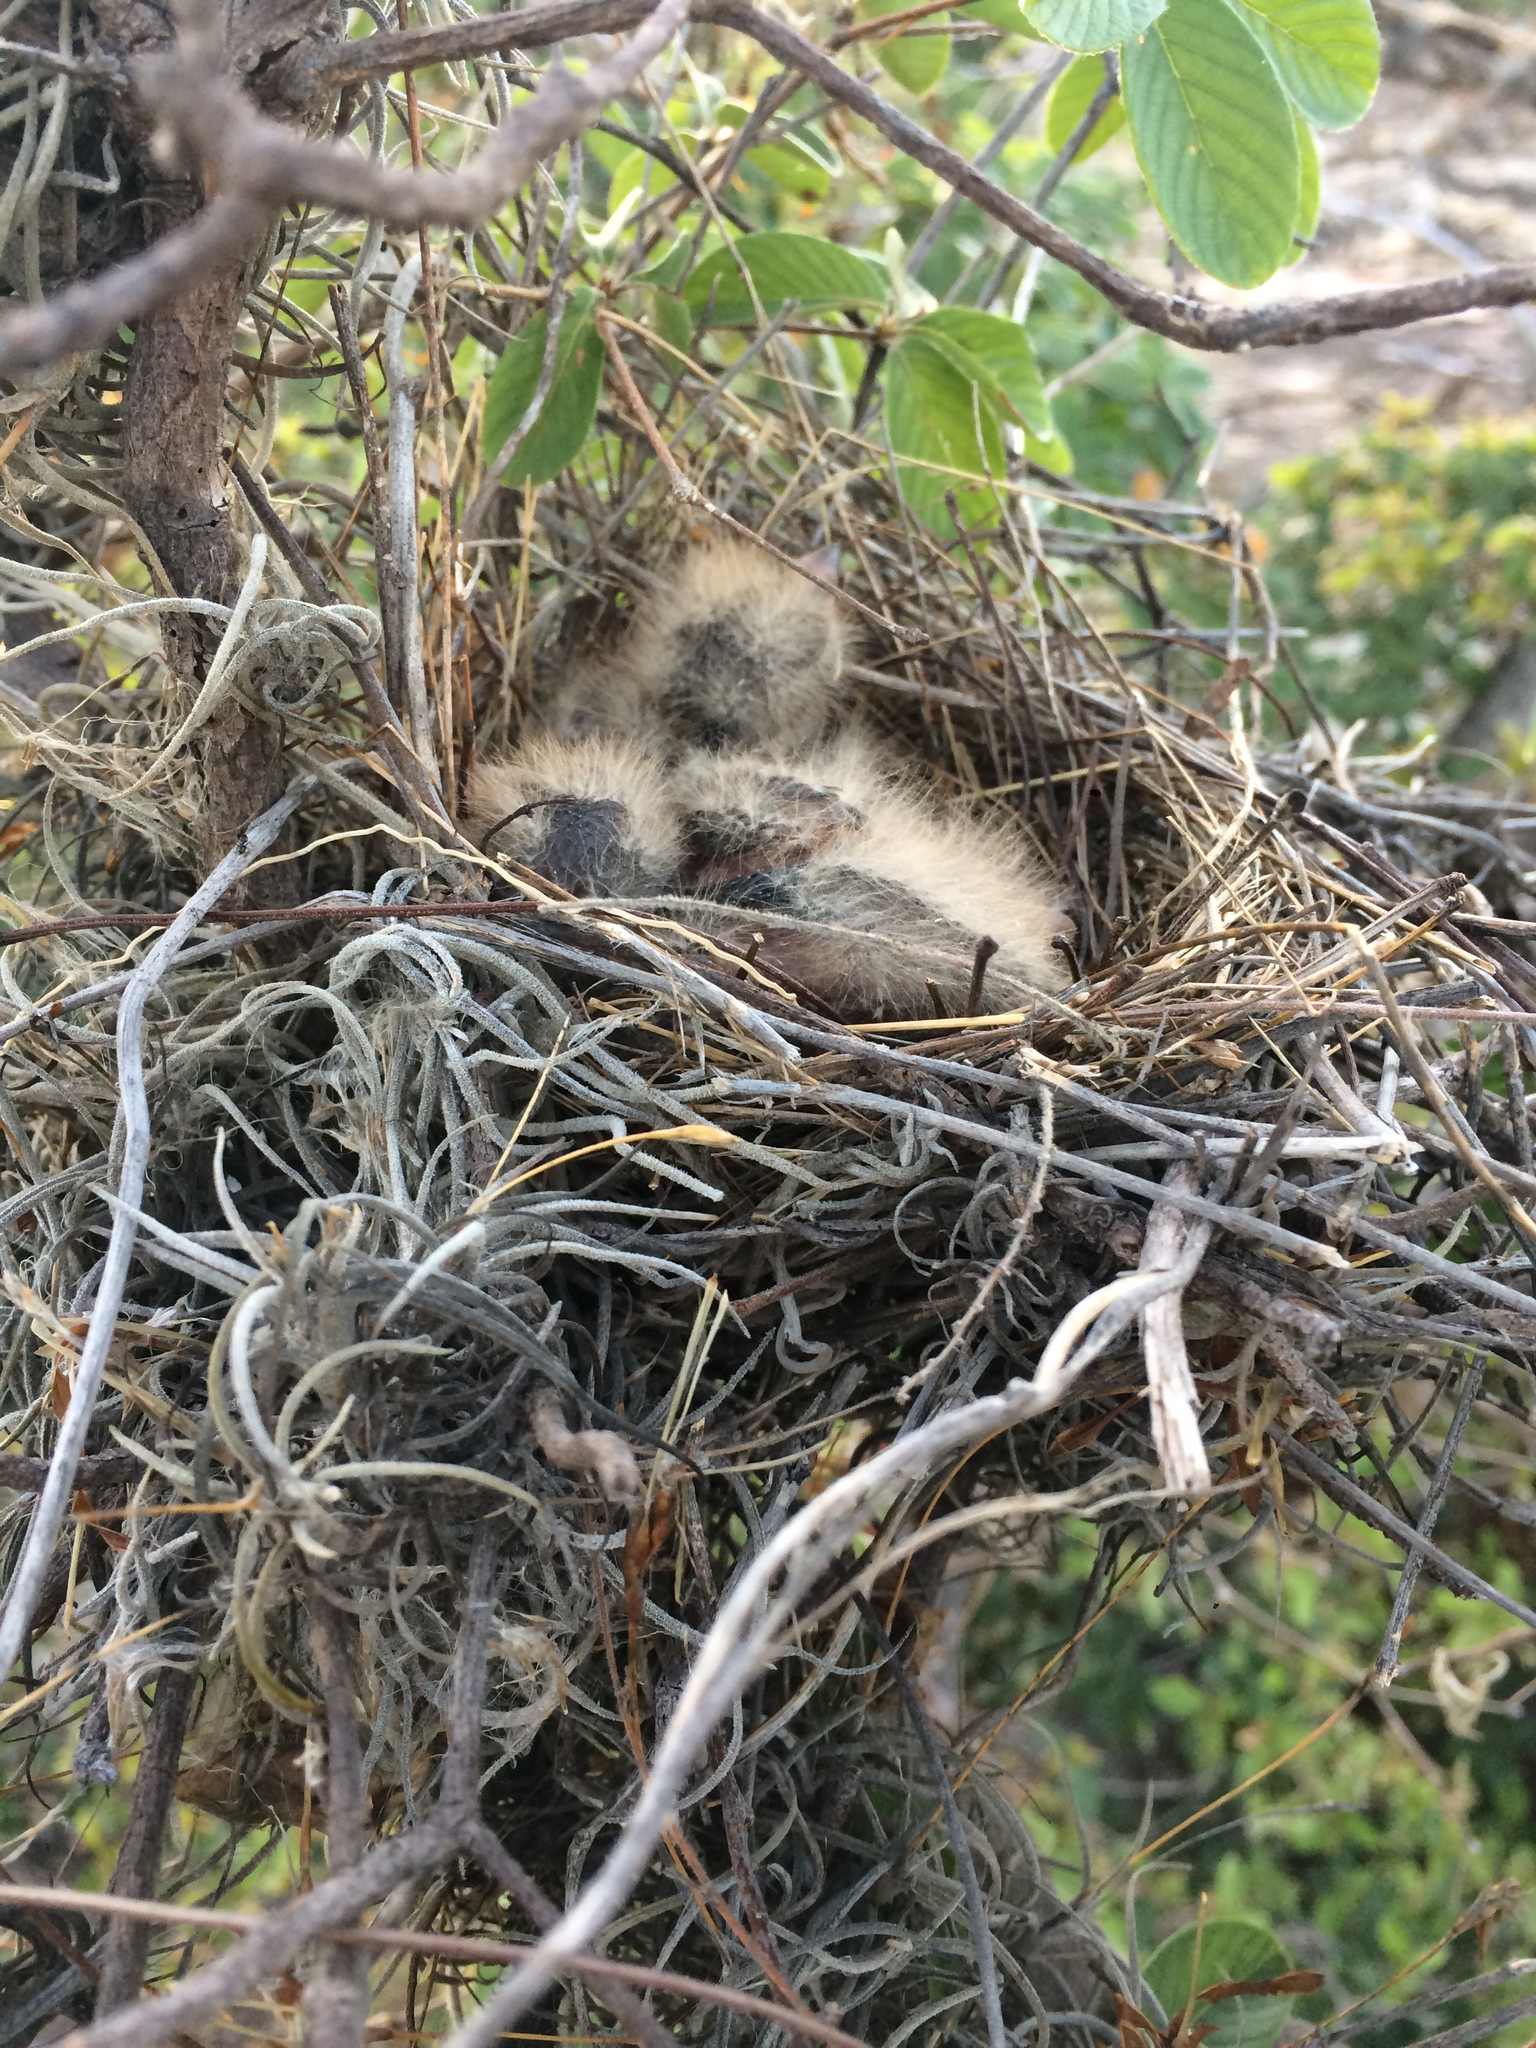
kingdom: Animalia
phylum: Chordata
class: Aves
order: Passeriformes
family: Tyrannidae
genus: Tyrannus
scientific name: Tyrannus melancholicus
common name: Tropical kingbird
